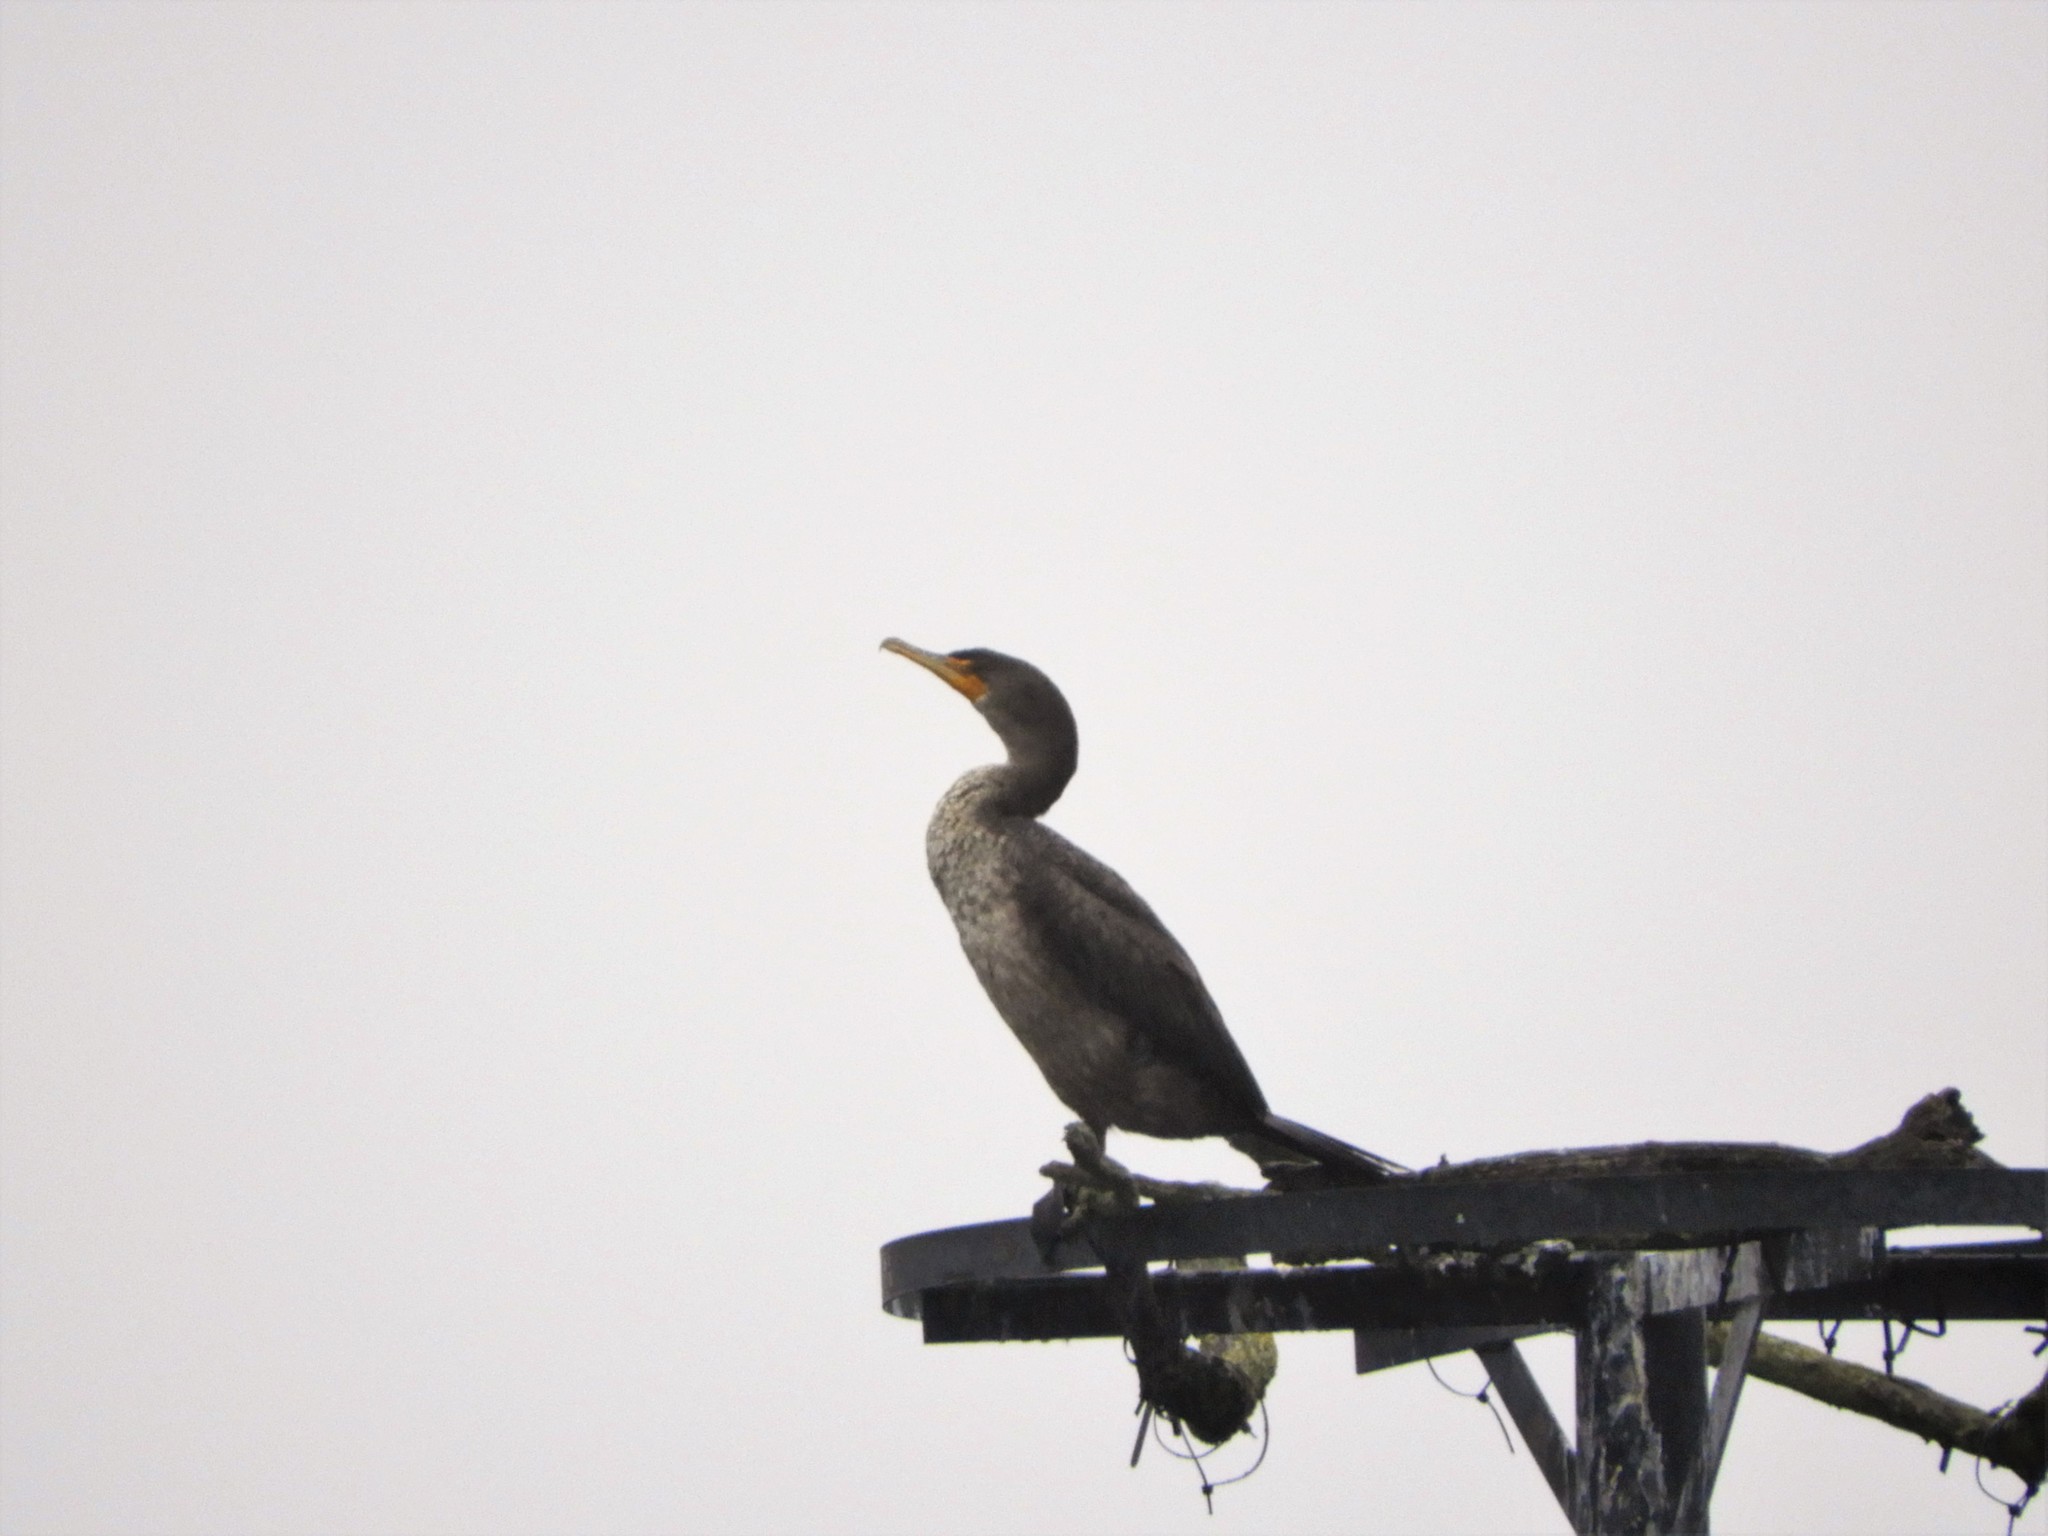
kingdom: Animalia
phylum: Chordata
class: Aves
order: Suliformes
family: Phalacrocoracidae
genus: Phalacrocorax
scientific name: Phalacrocorax auritus
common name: Double-crested cormorant
